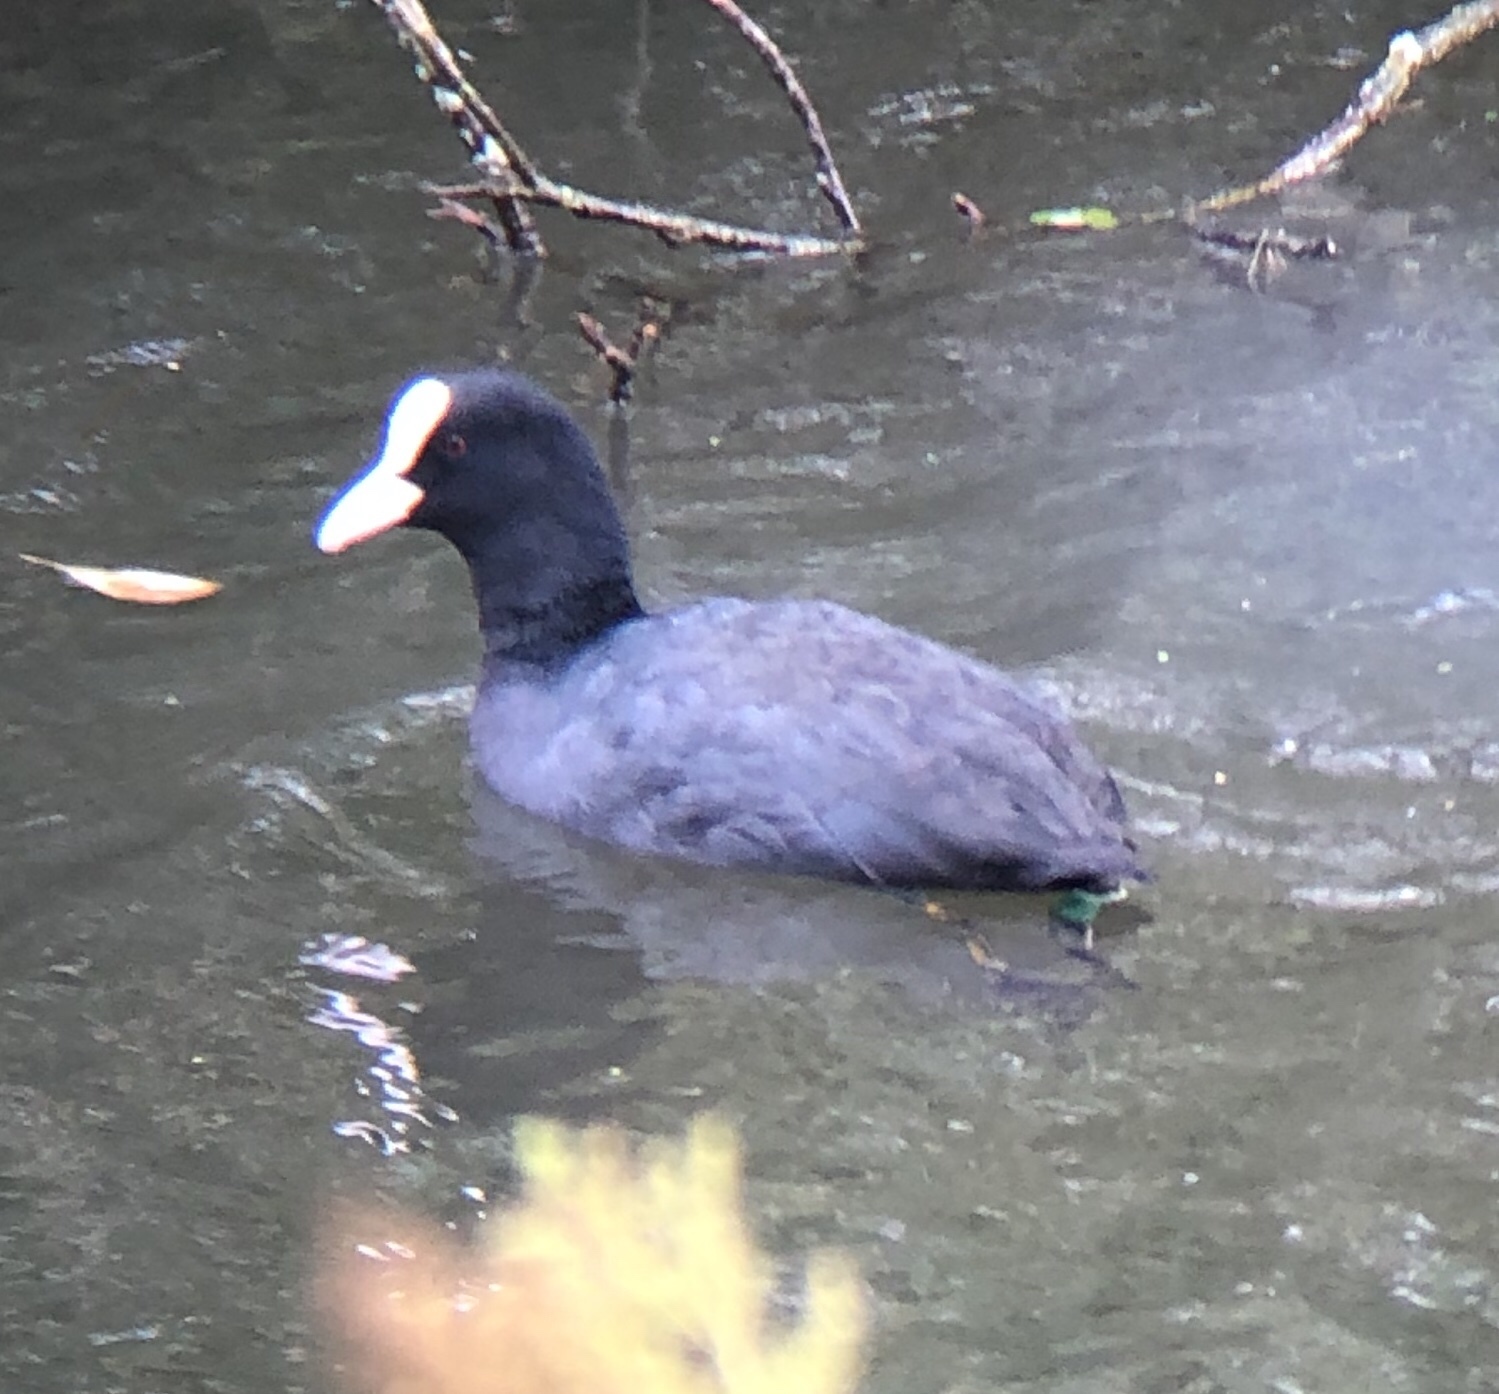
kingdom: Animalia
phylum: Chordata
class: Aves
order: Gruiformes
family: Rallidae
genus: Fulica
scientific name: Fulica atra
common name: Eurasian coot
